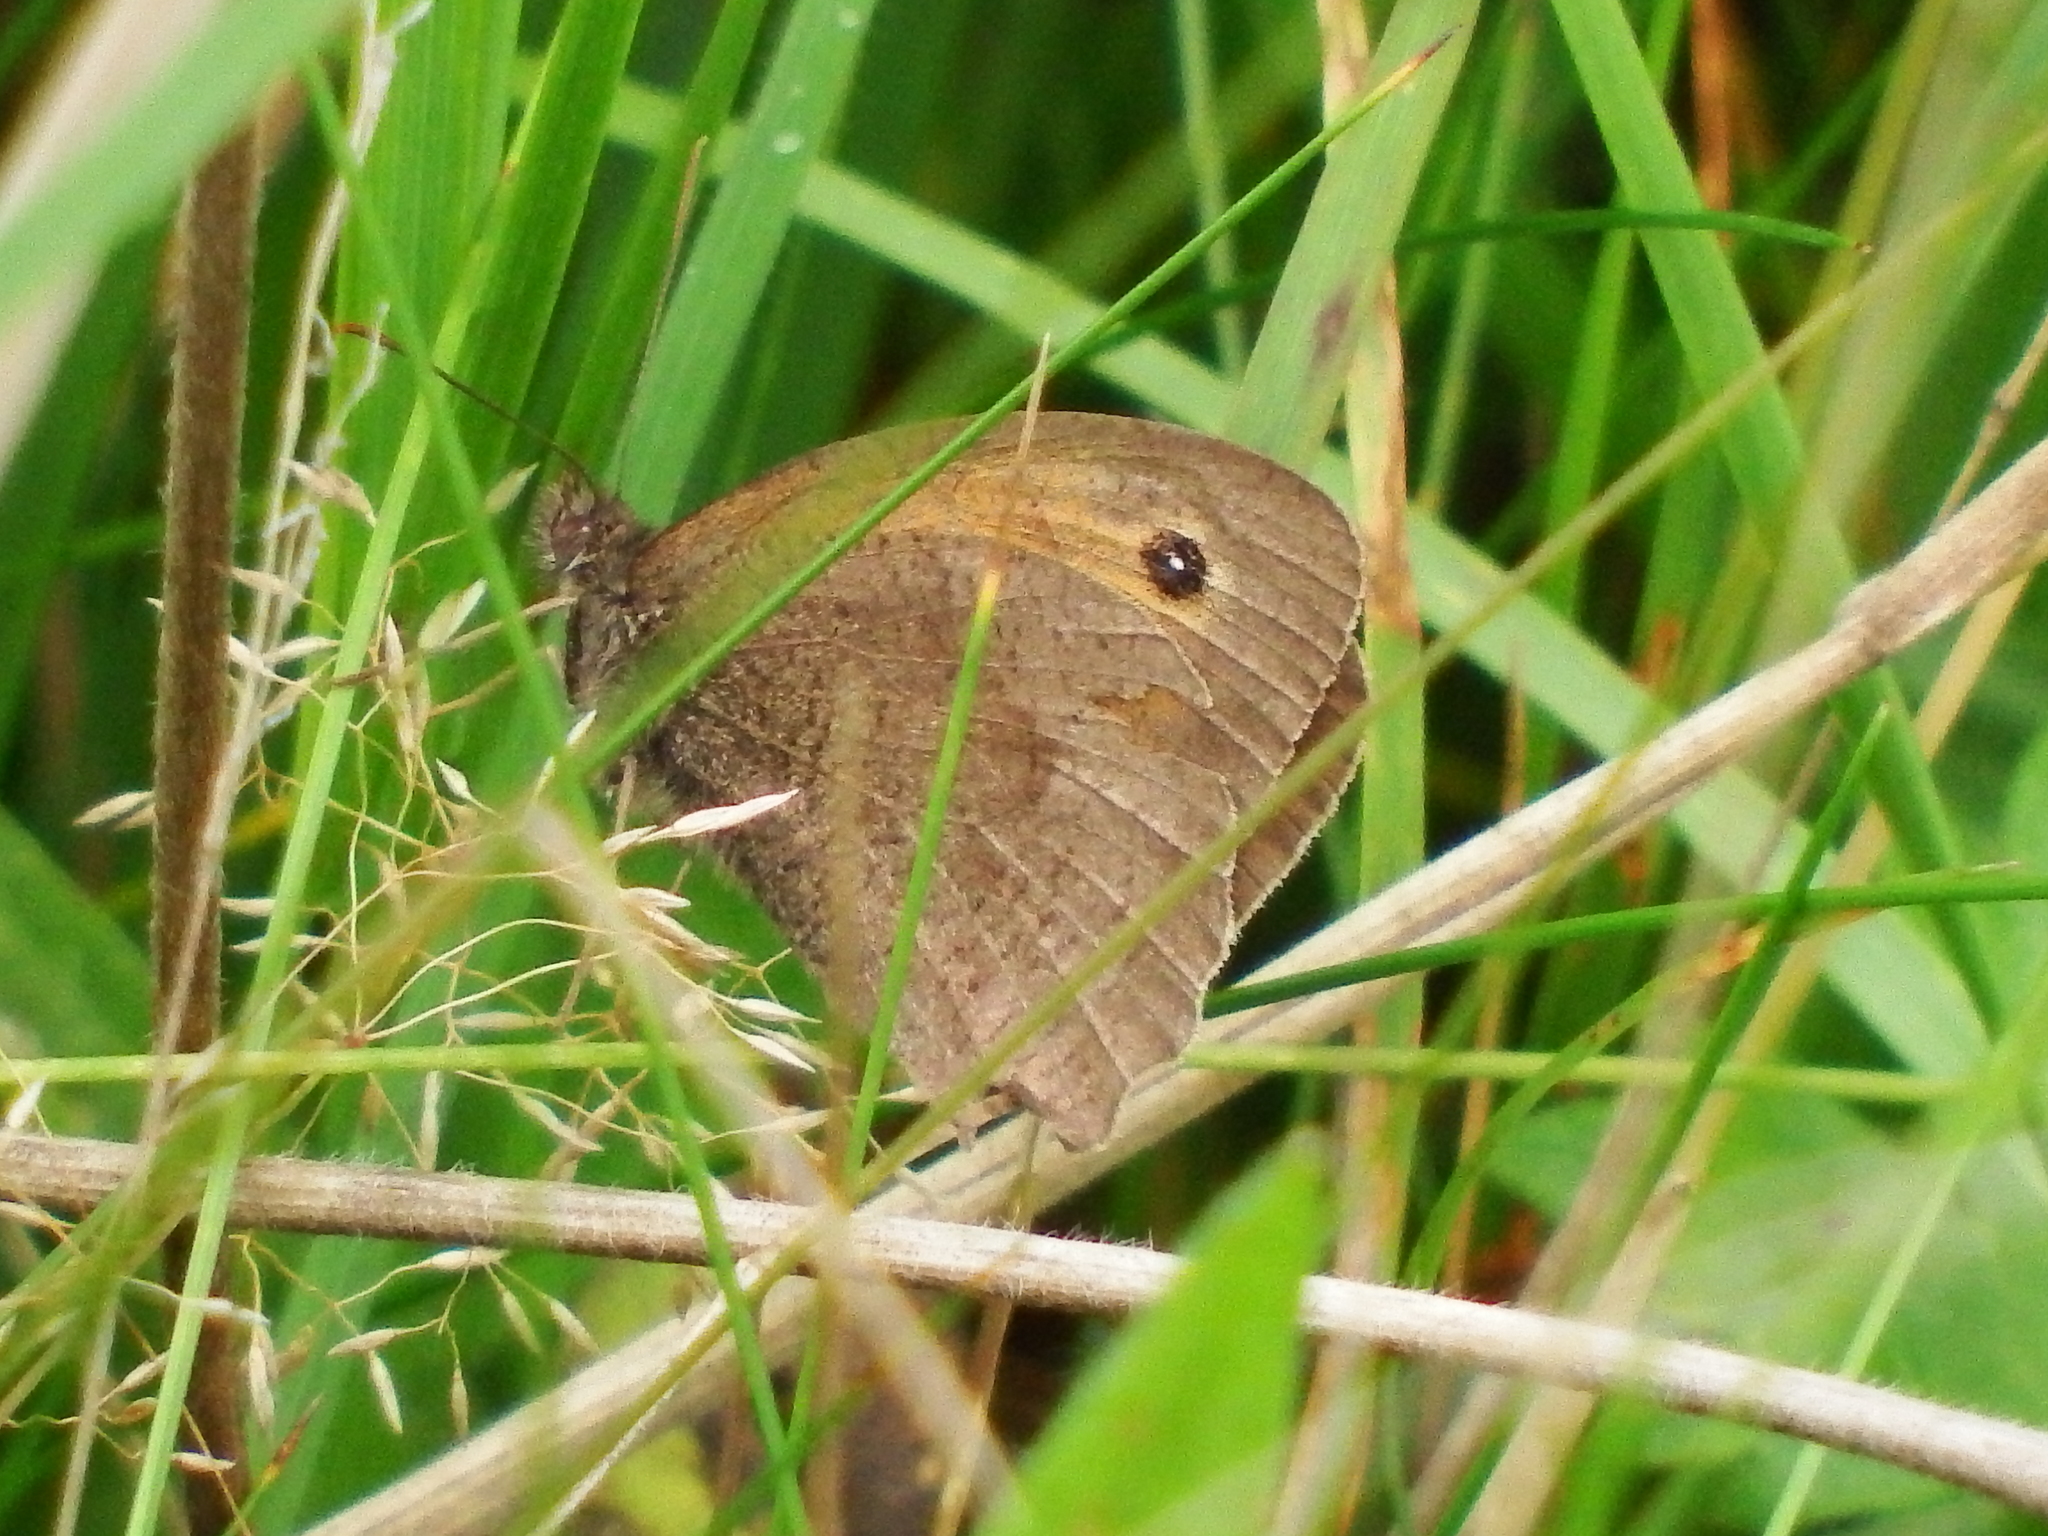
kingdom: Animalia
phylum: Arthropoda
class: Insecta
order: Lepidoptera
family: Nymphalidae
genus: Maniola
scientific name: Maniola jurtina
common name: Meadow brown
